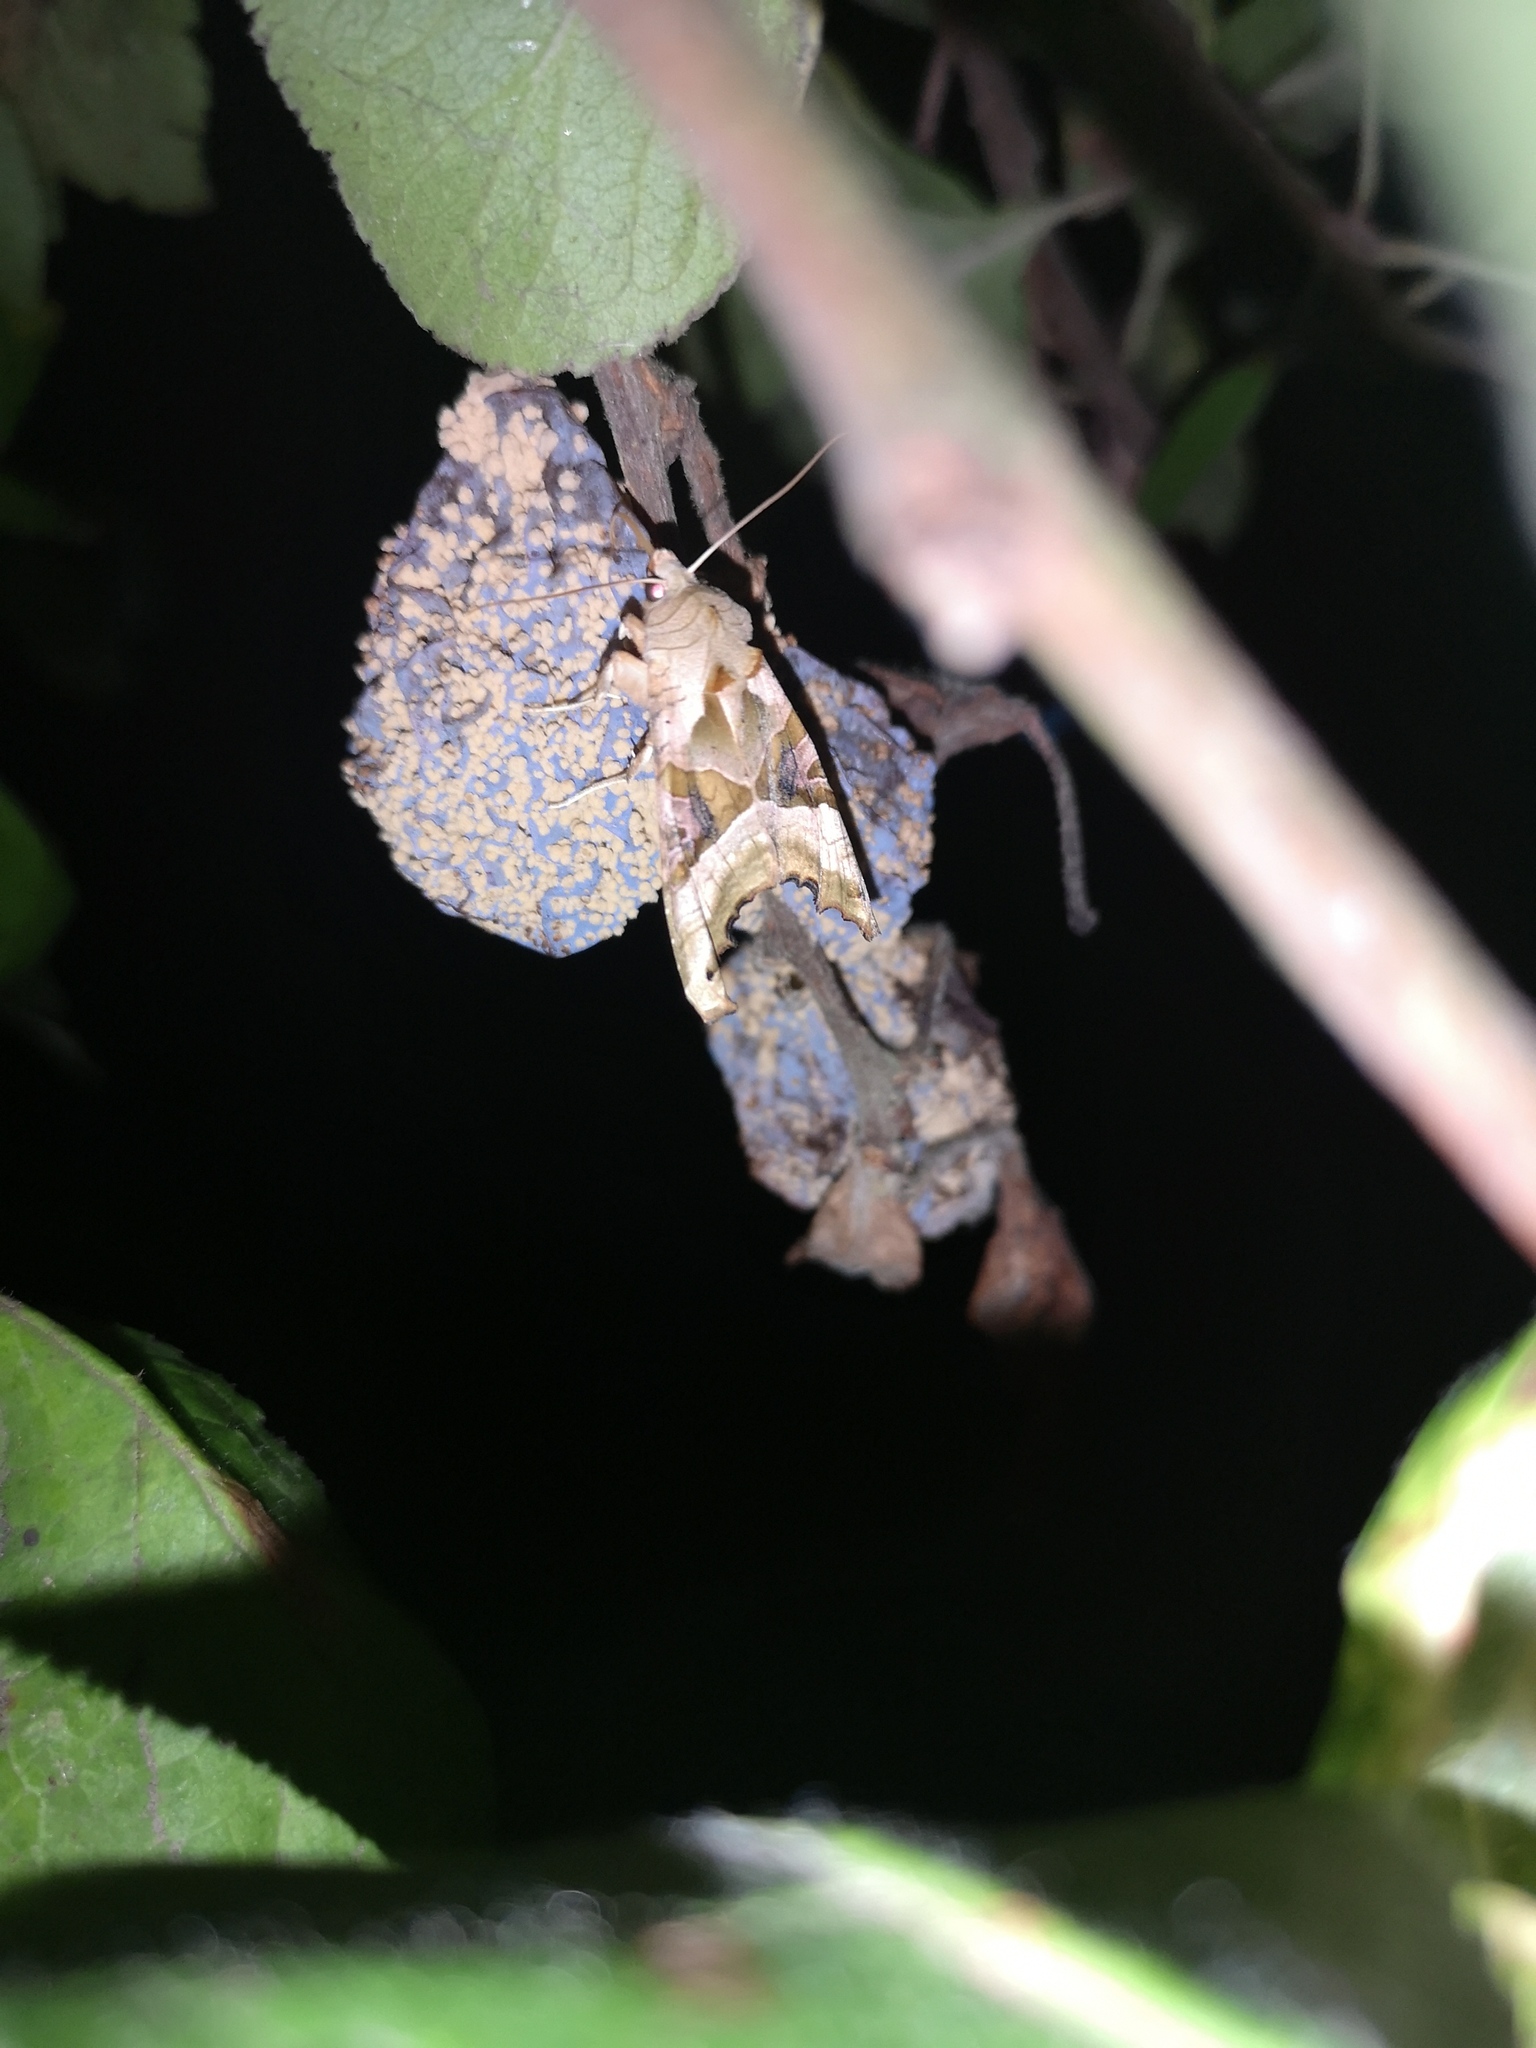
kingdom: Animalia
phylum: Arthropoda
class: Insecta
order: Lepidoptera
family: Noctuidae
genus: Phlogophora
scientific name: Phlogophora meticulosa
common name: Angle shades
